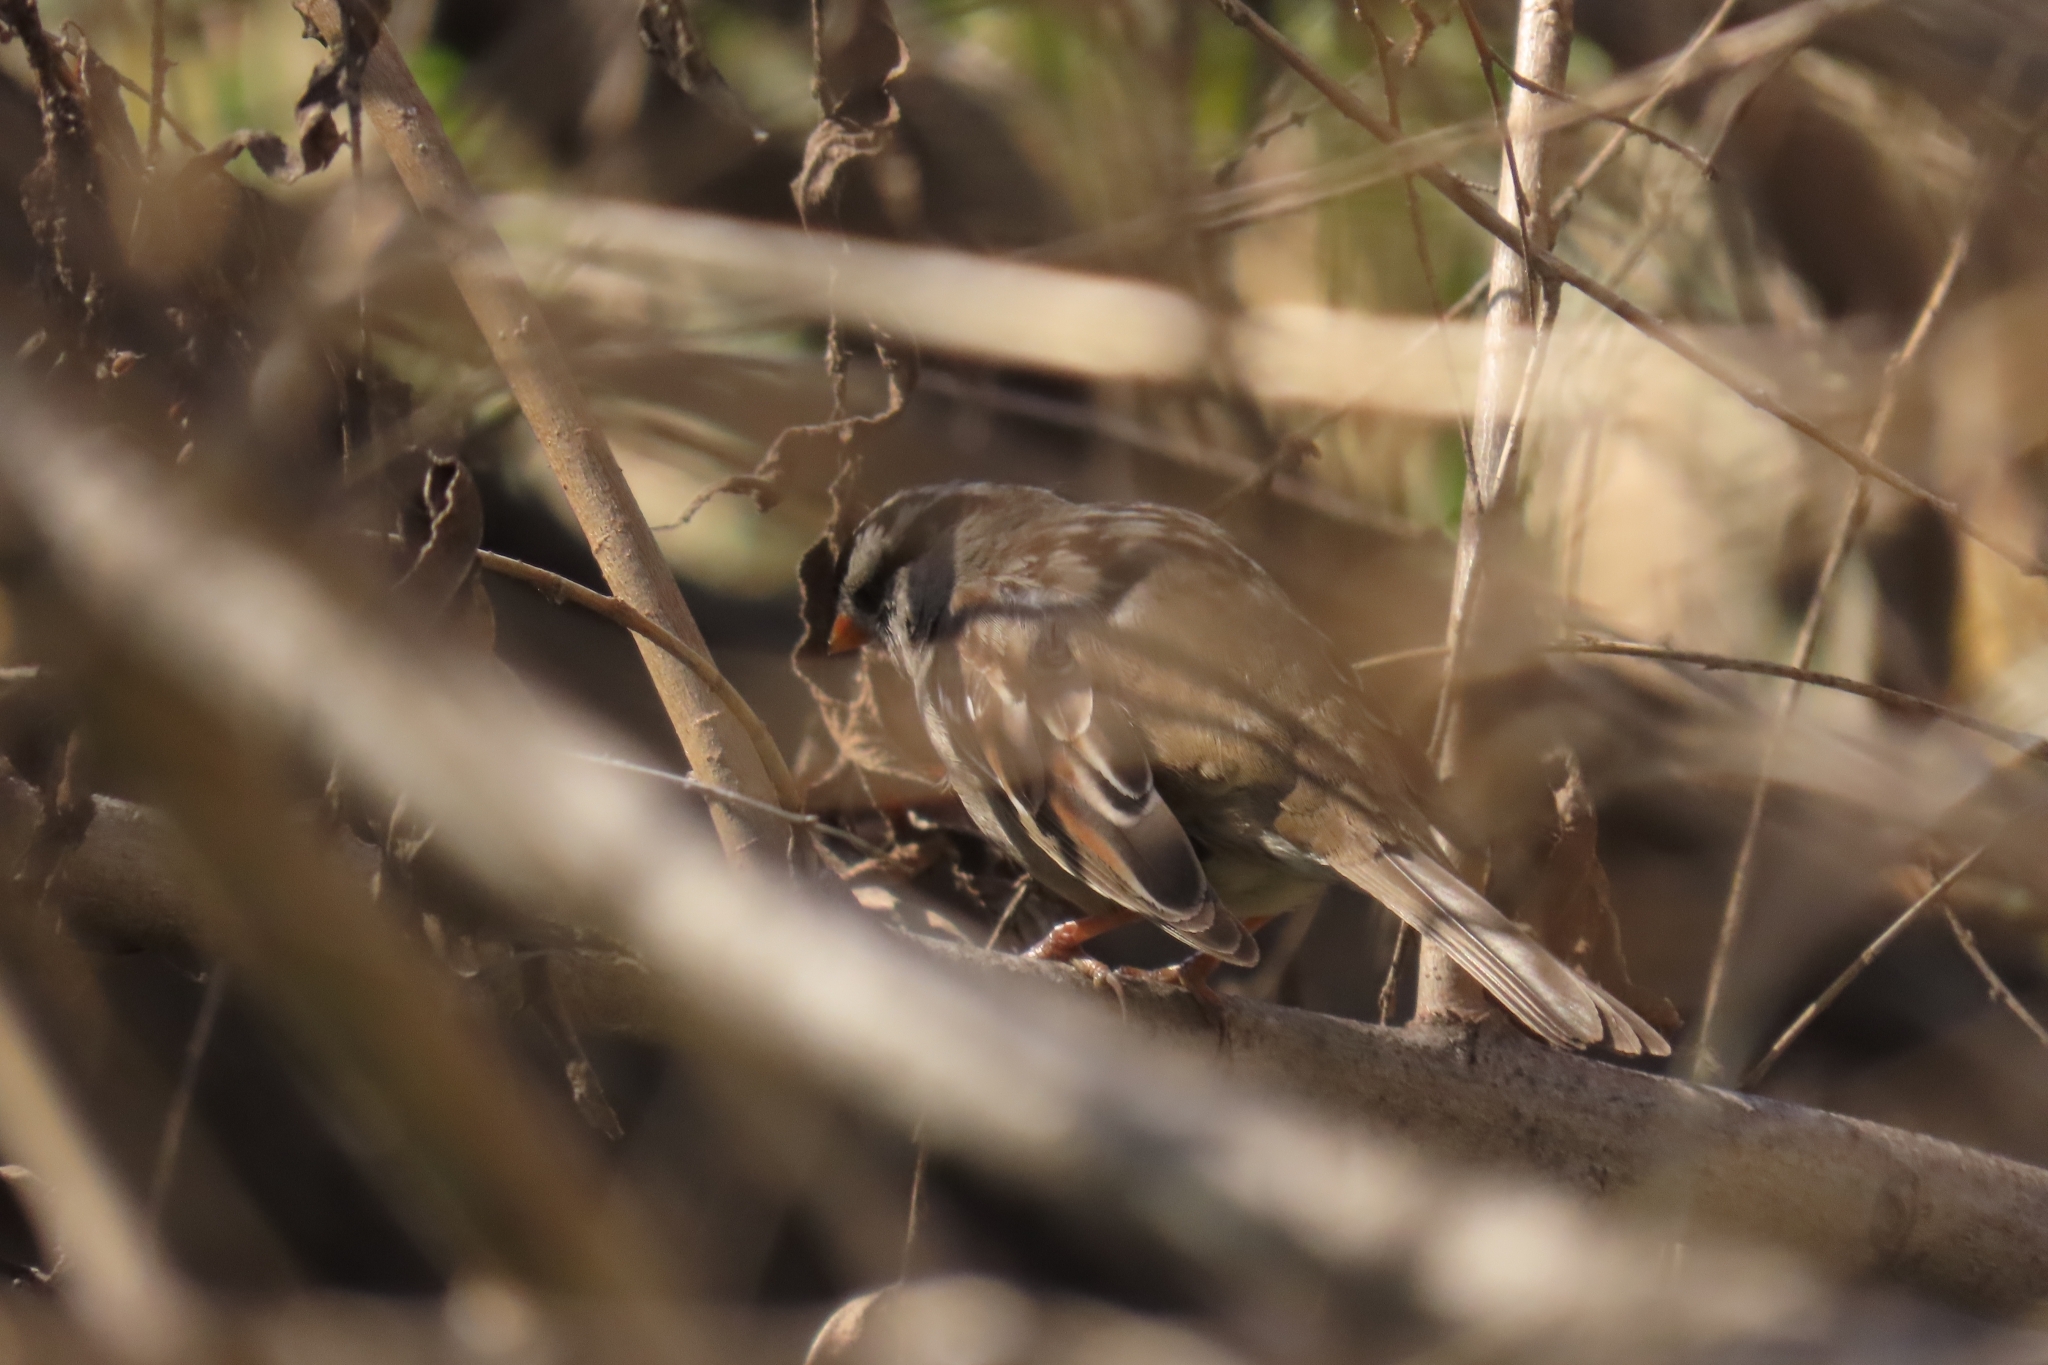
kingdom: Animalia
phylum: Chordata
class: Aves
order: Passeriformes
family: Passerellidae
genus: Zonotrichia
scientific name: Zonotrichia leucophrys
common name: White-crowned sparrow
